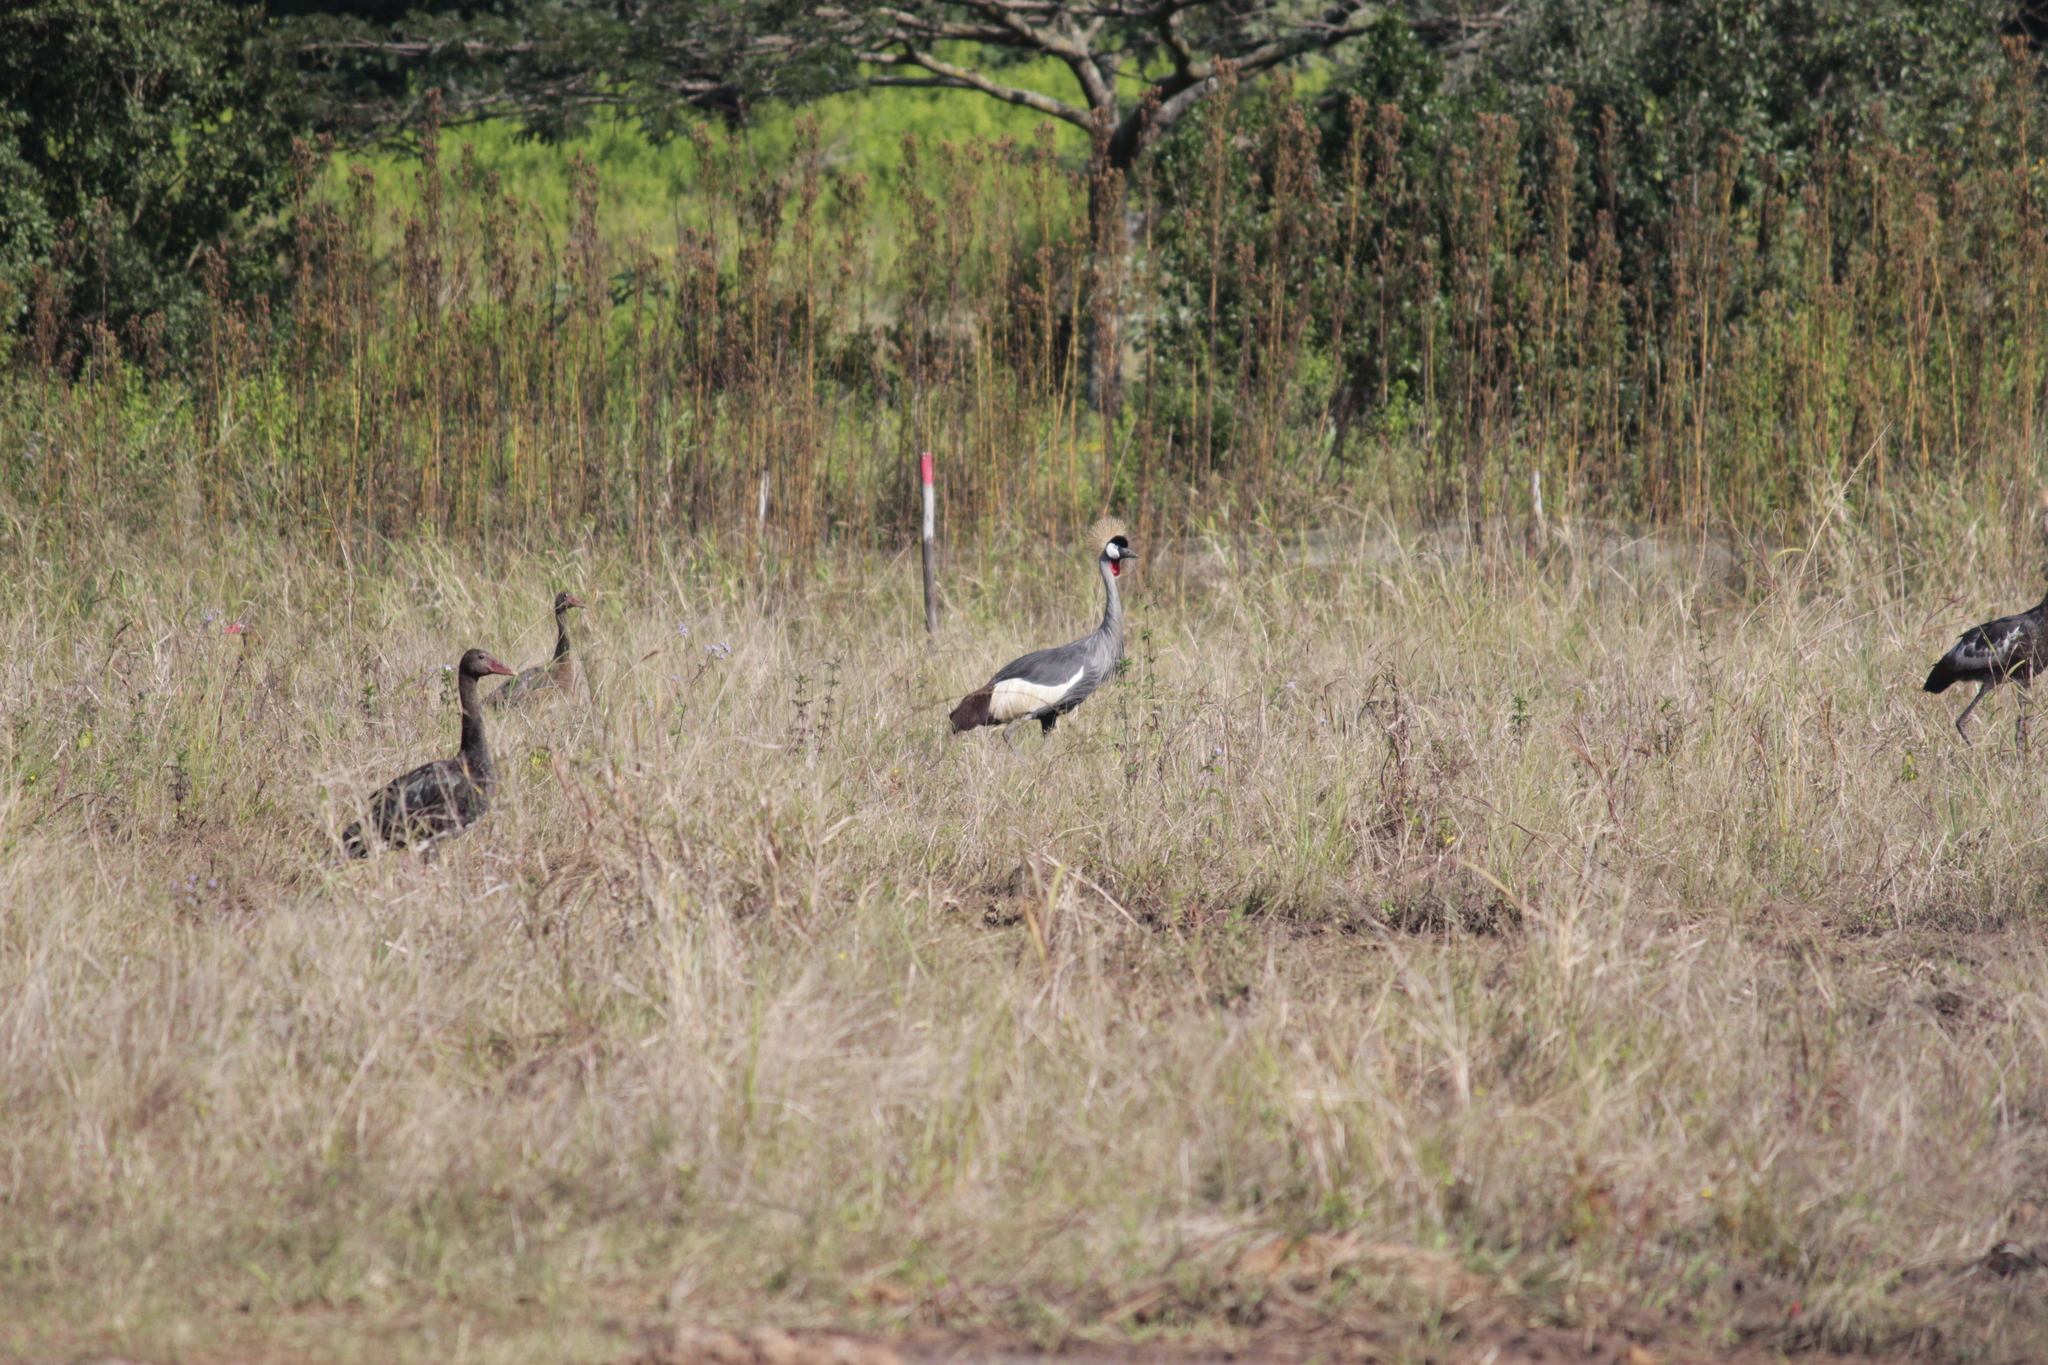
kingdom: Animalia
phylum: Chordata
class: Aves
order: Anseriformes
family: Anatidae
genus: Plectropterus
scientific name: Plectropterus gambensis
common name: Spur-winged goose
